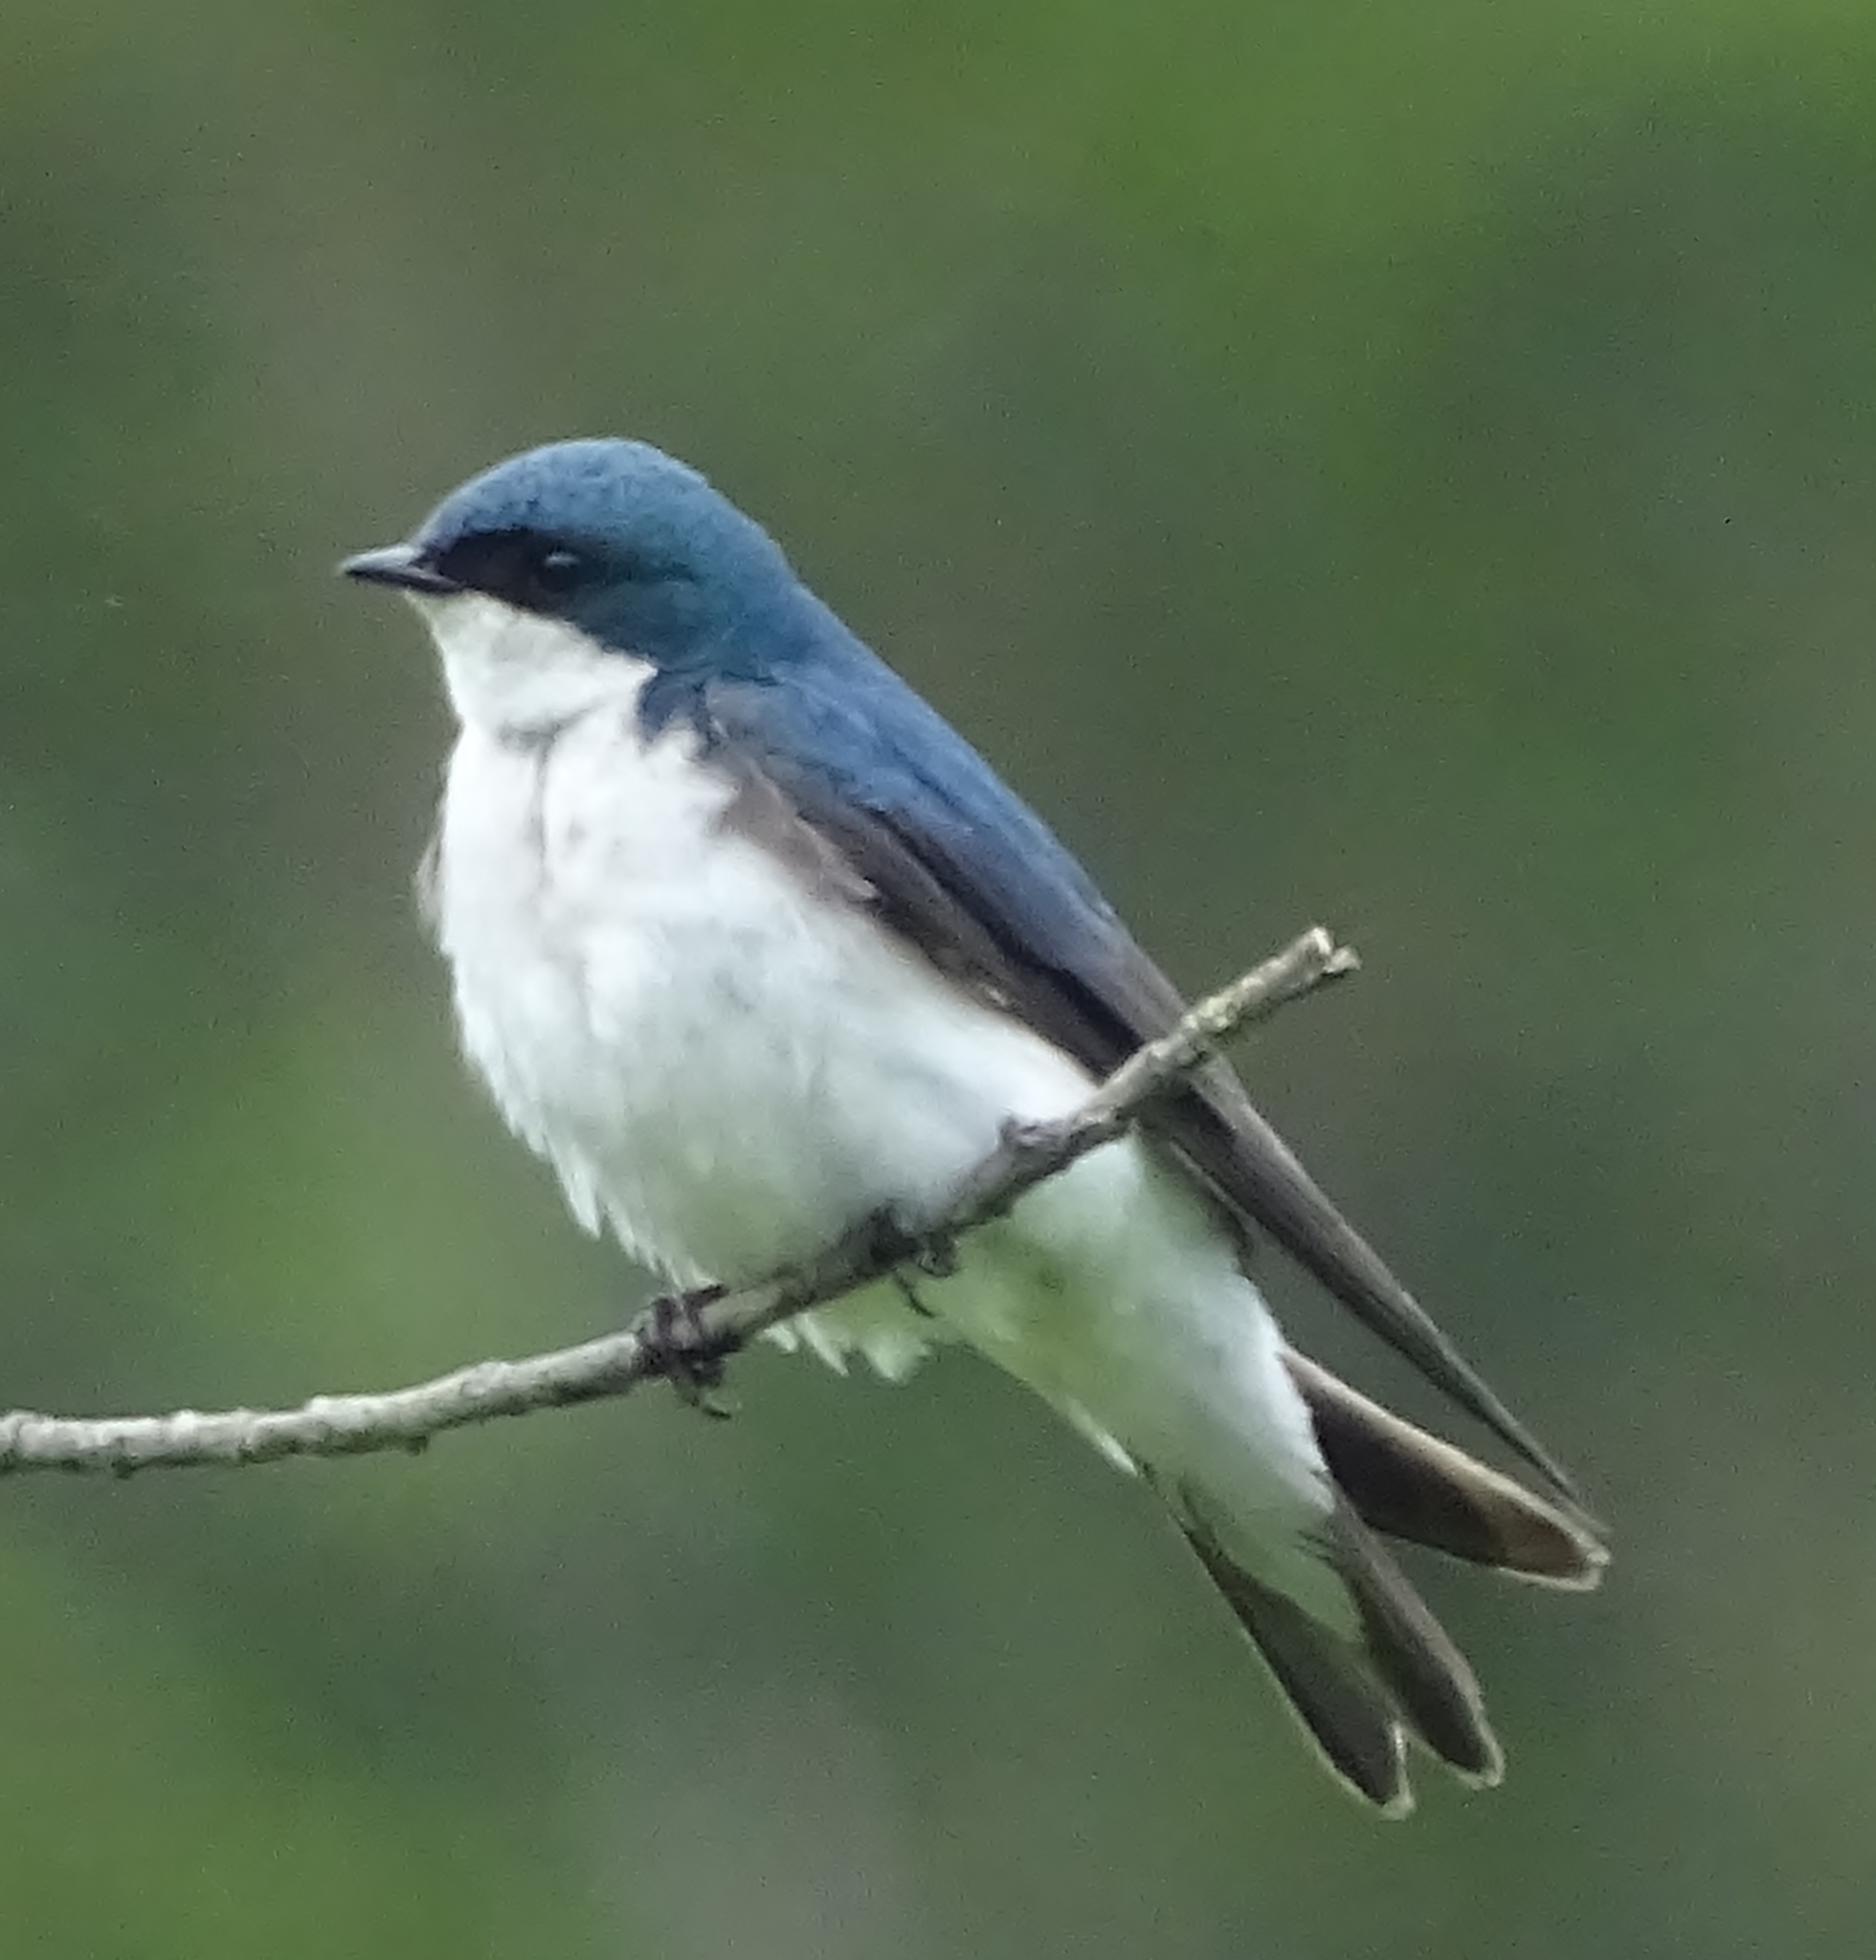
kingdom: Animalia
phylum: Chordata
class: Aves
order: Passeriformes
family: Hirundinidae
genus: Tachycineta
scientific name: Tachycineta bicolor
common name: Tree swallow
